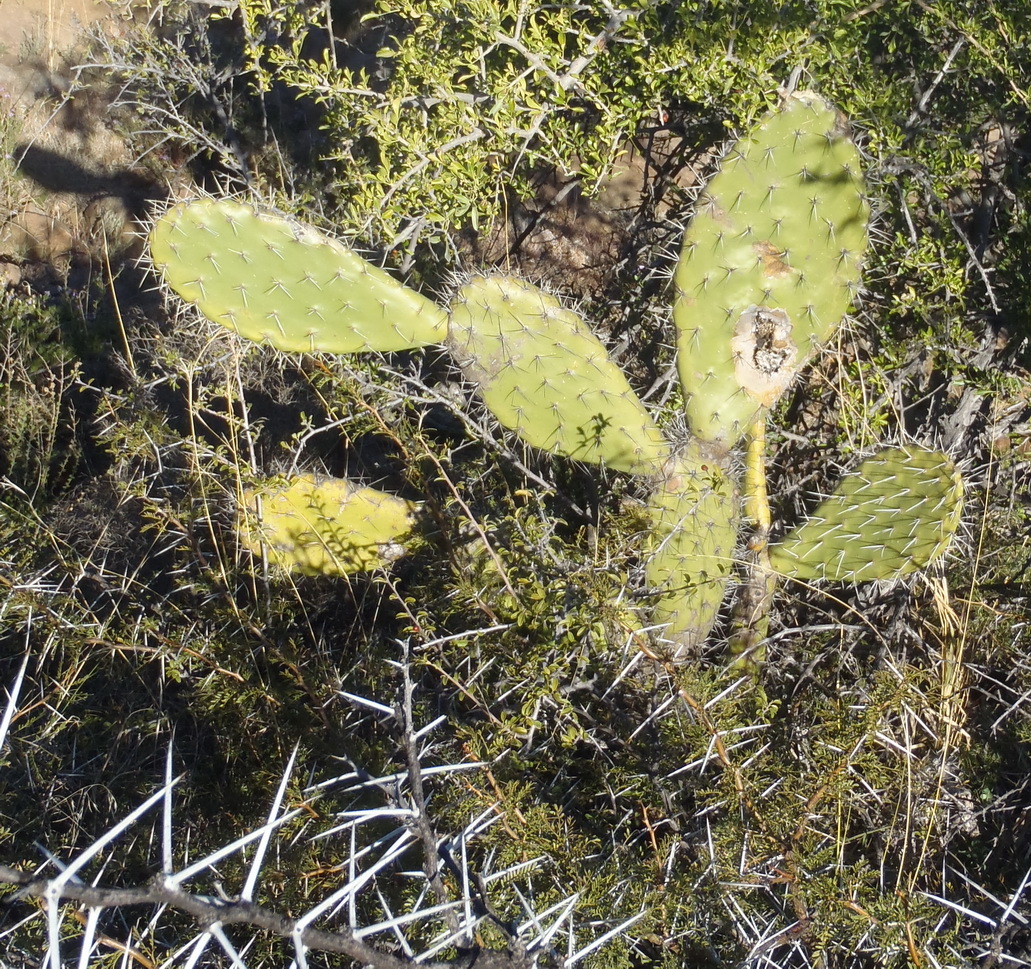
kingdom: Plantae
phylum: Tracheophyta
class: Magnoliopsida
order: Caryophyllales
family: Cactaceae
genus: Opuntia
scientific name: Opuntia ficus-indica
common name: Barbary fig
